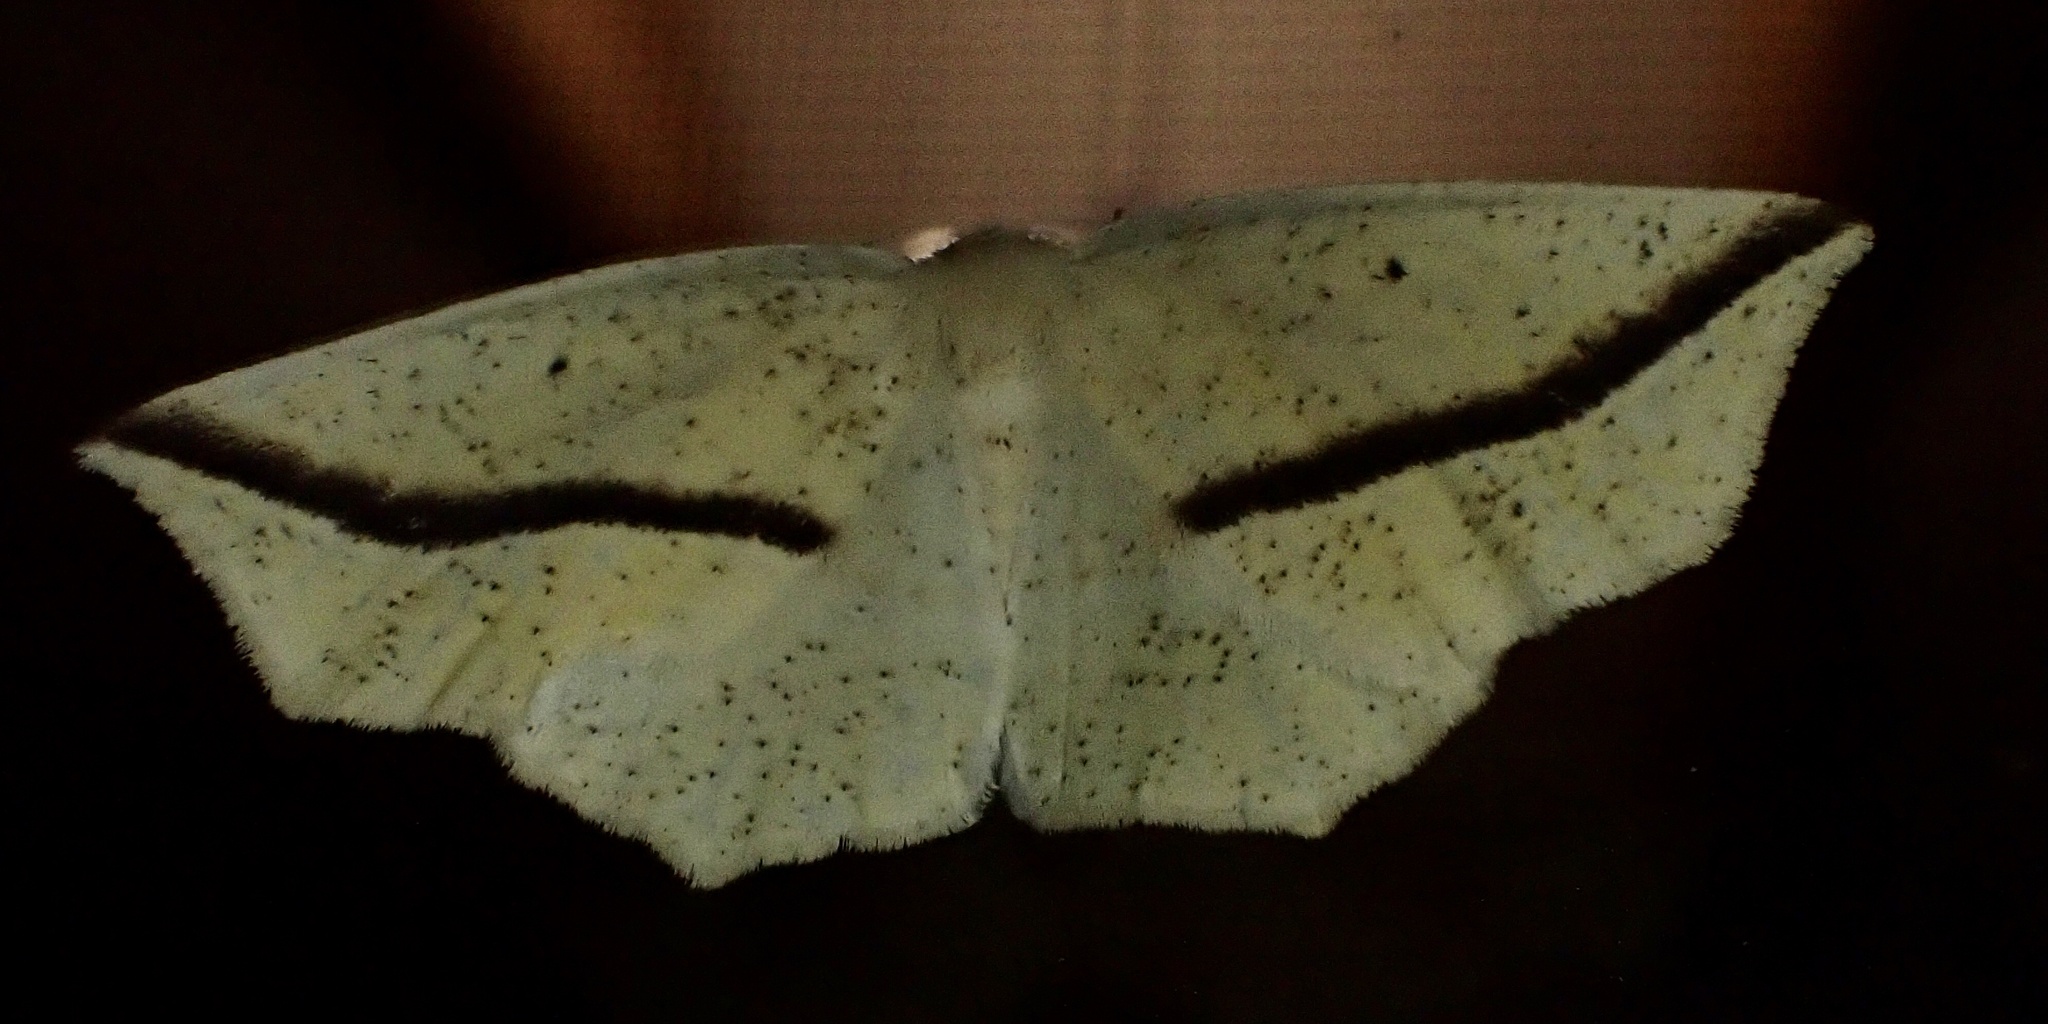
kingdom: Animalia
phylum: Arthropoda
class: Insecta
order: Lepidoptera
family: Geometridae
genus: Tetracis
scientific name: Tetracis crocallata
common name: Yellow slant-line
